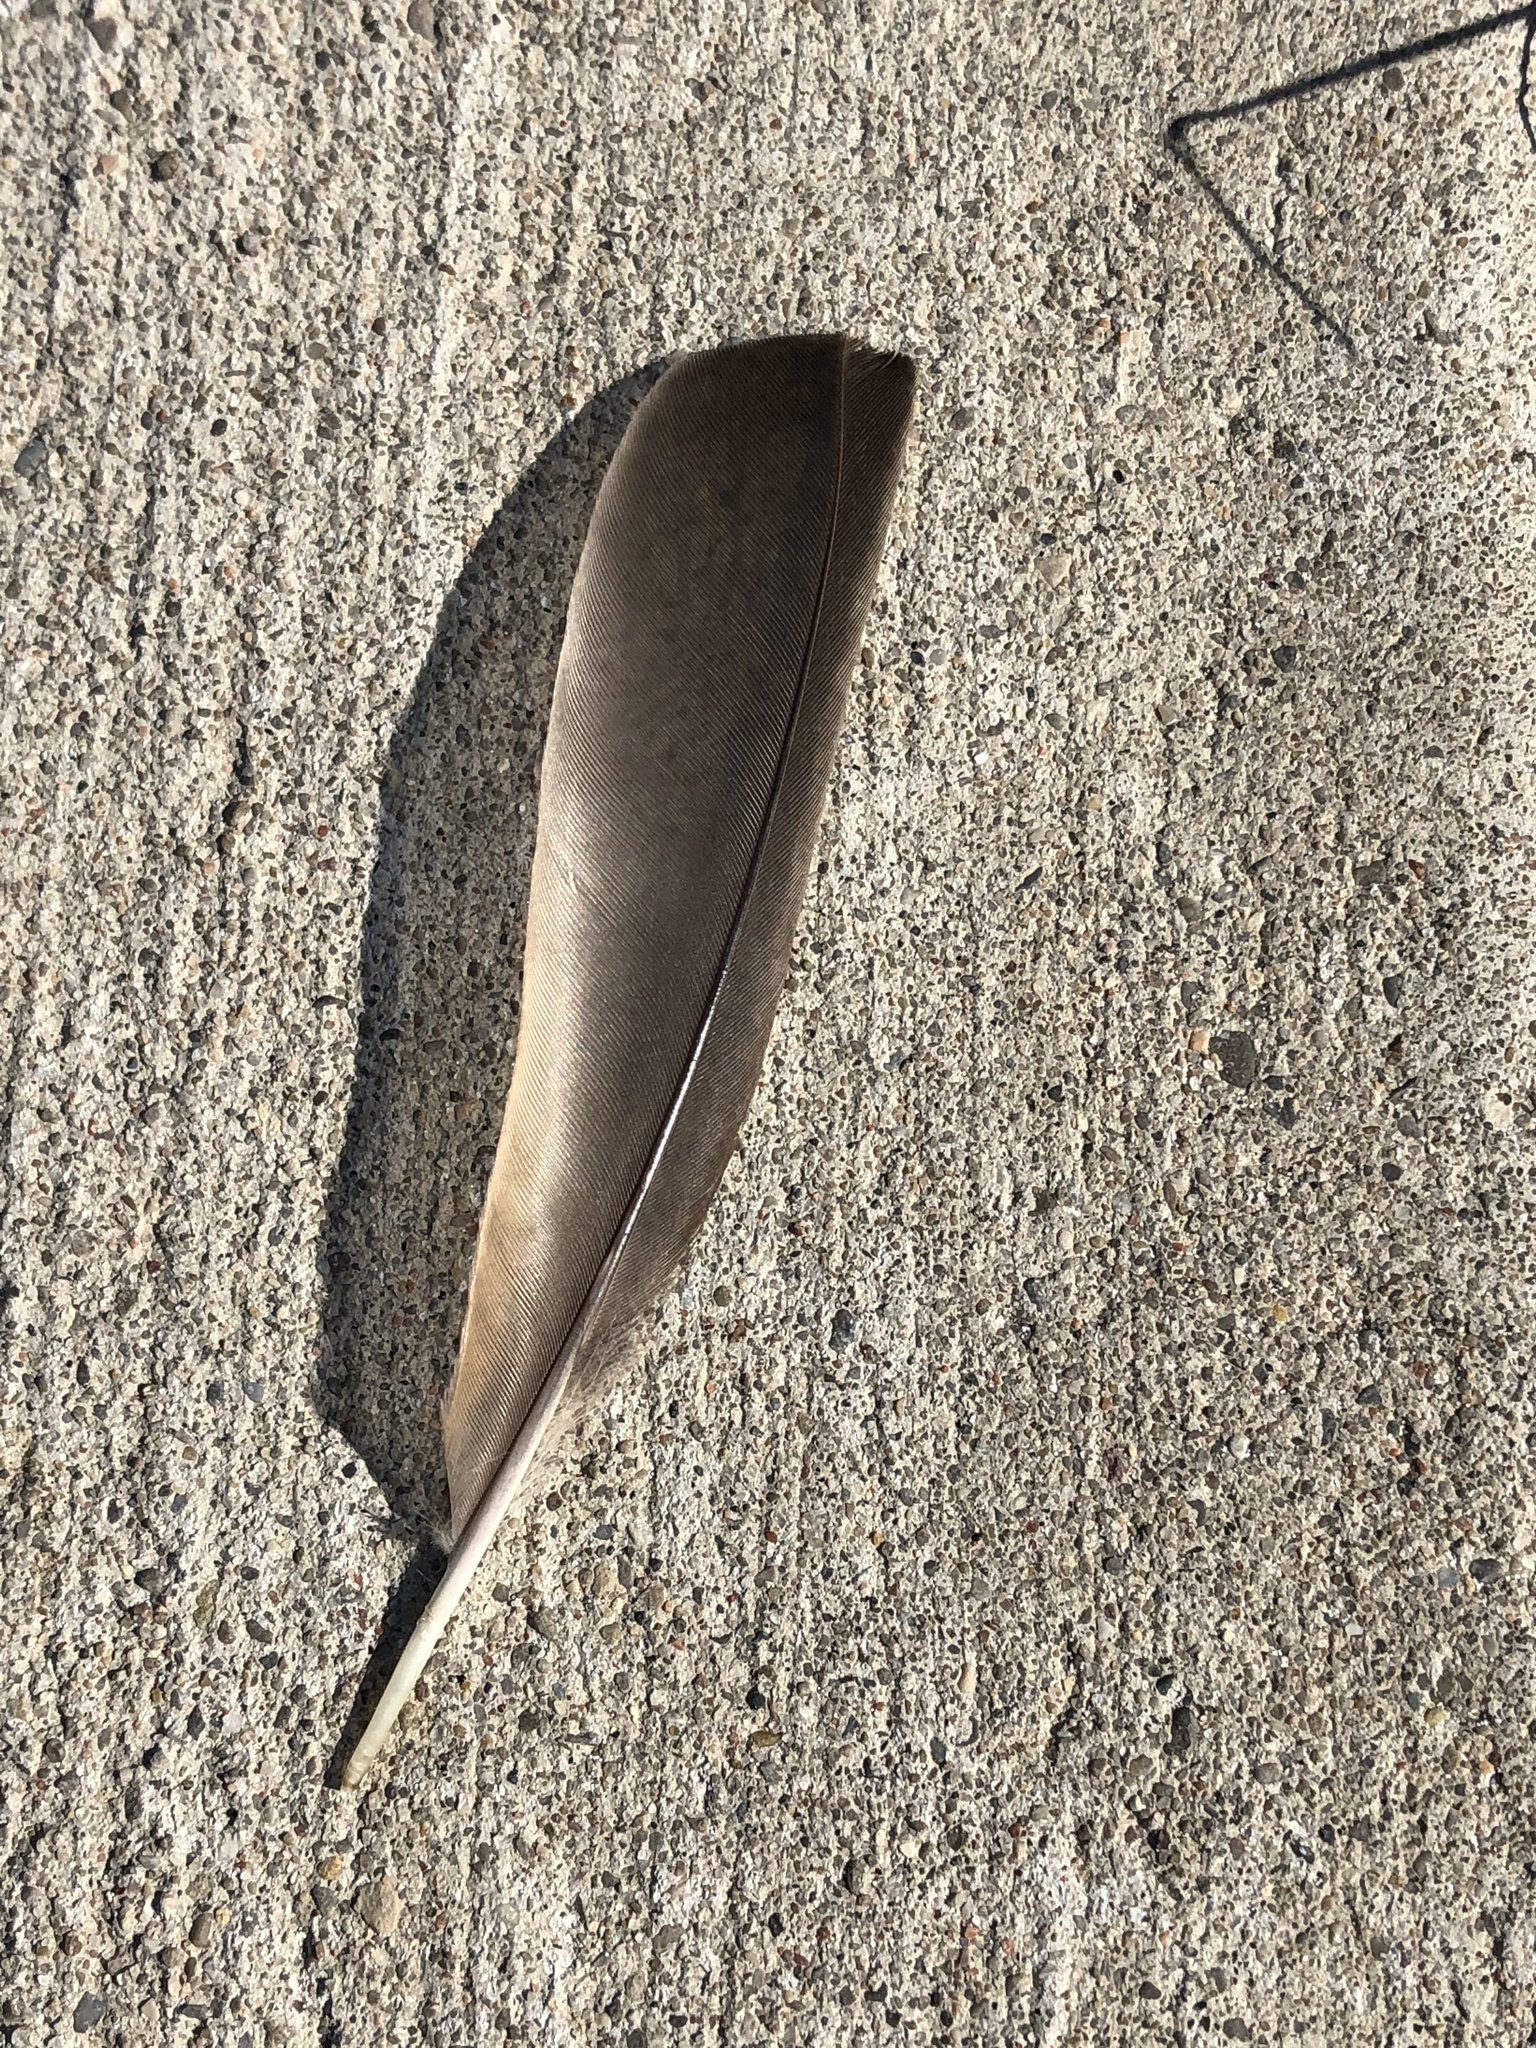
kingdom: Animalia
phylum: Chordata
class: Aves
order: Passeriformes
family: Turdidae
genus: Turdus
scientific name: Turdus migratorius
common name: American robin
